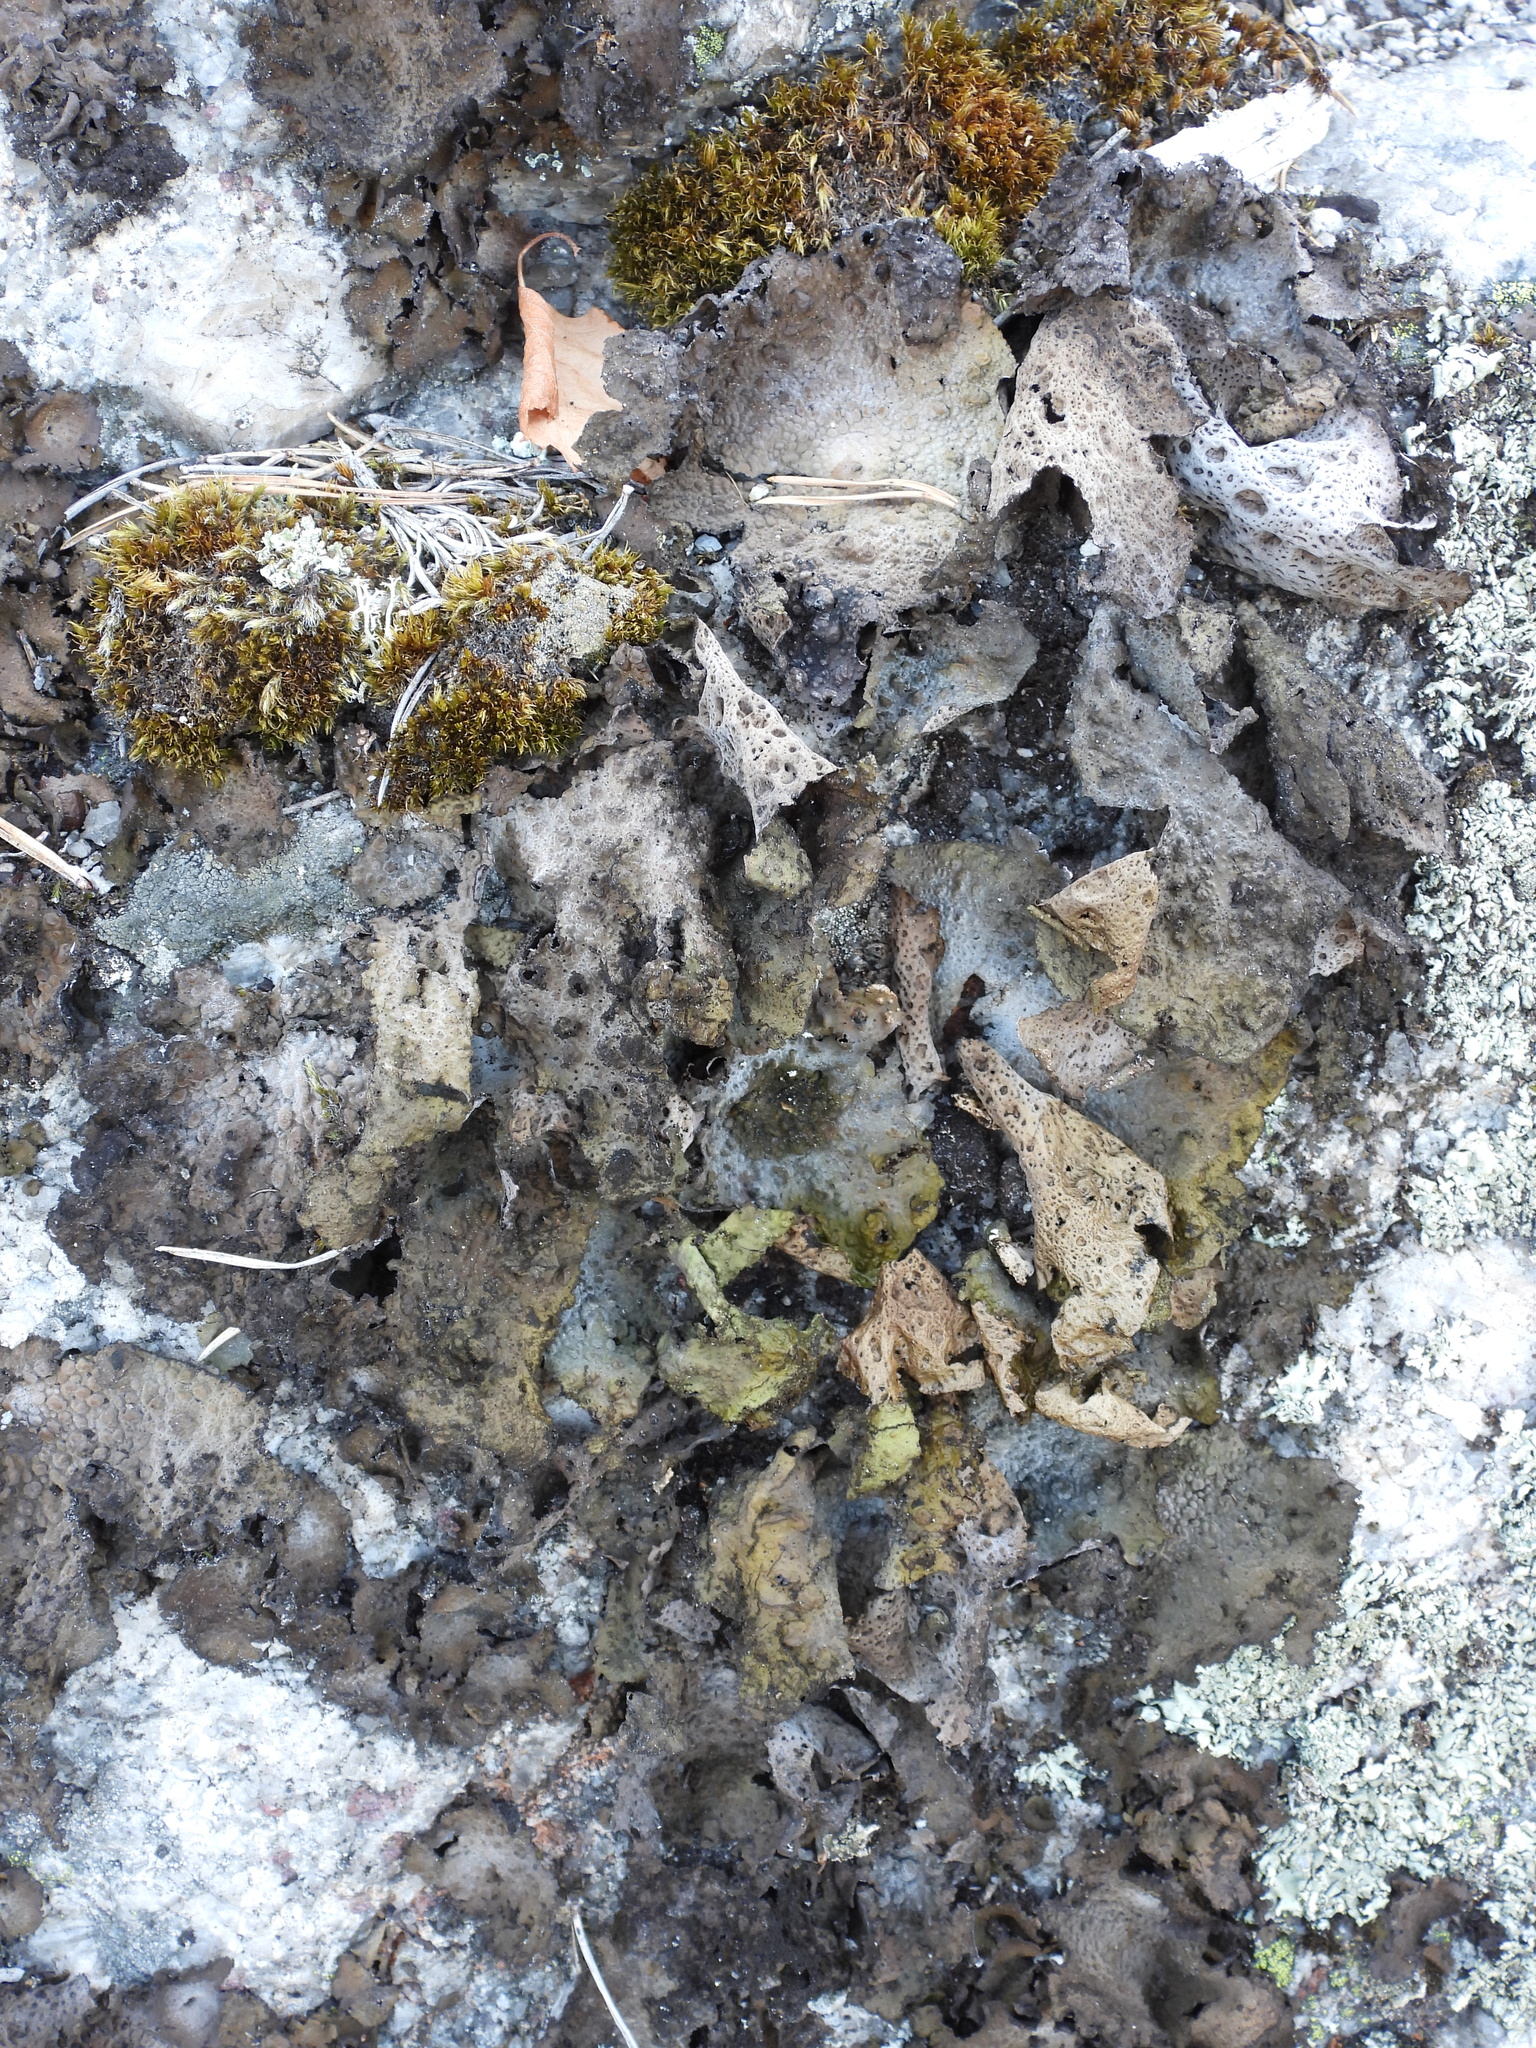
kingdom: Fungi
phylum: Ascomycota
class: Lecanoromycetes
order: Umbilicariales
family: Umbilicariaceae
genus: Lasallia
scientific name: Lasallia pustulata
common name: Blistered toadskin lichen
